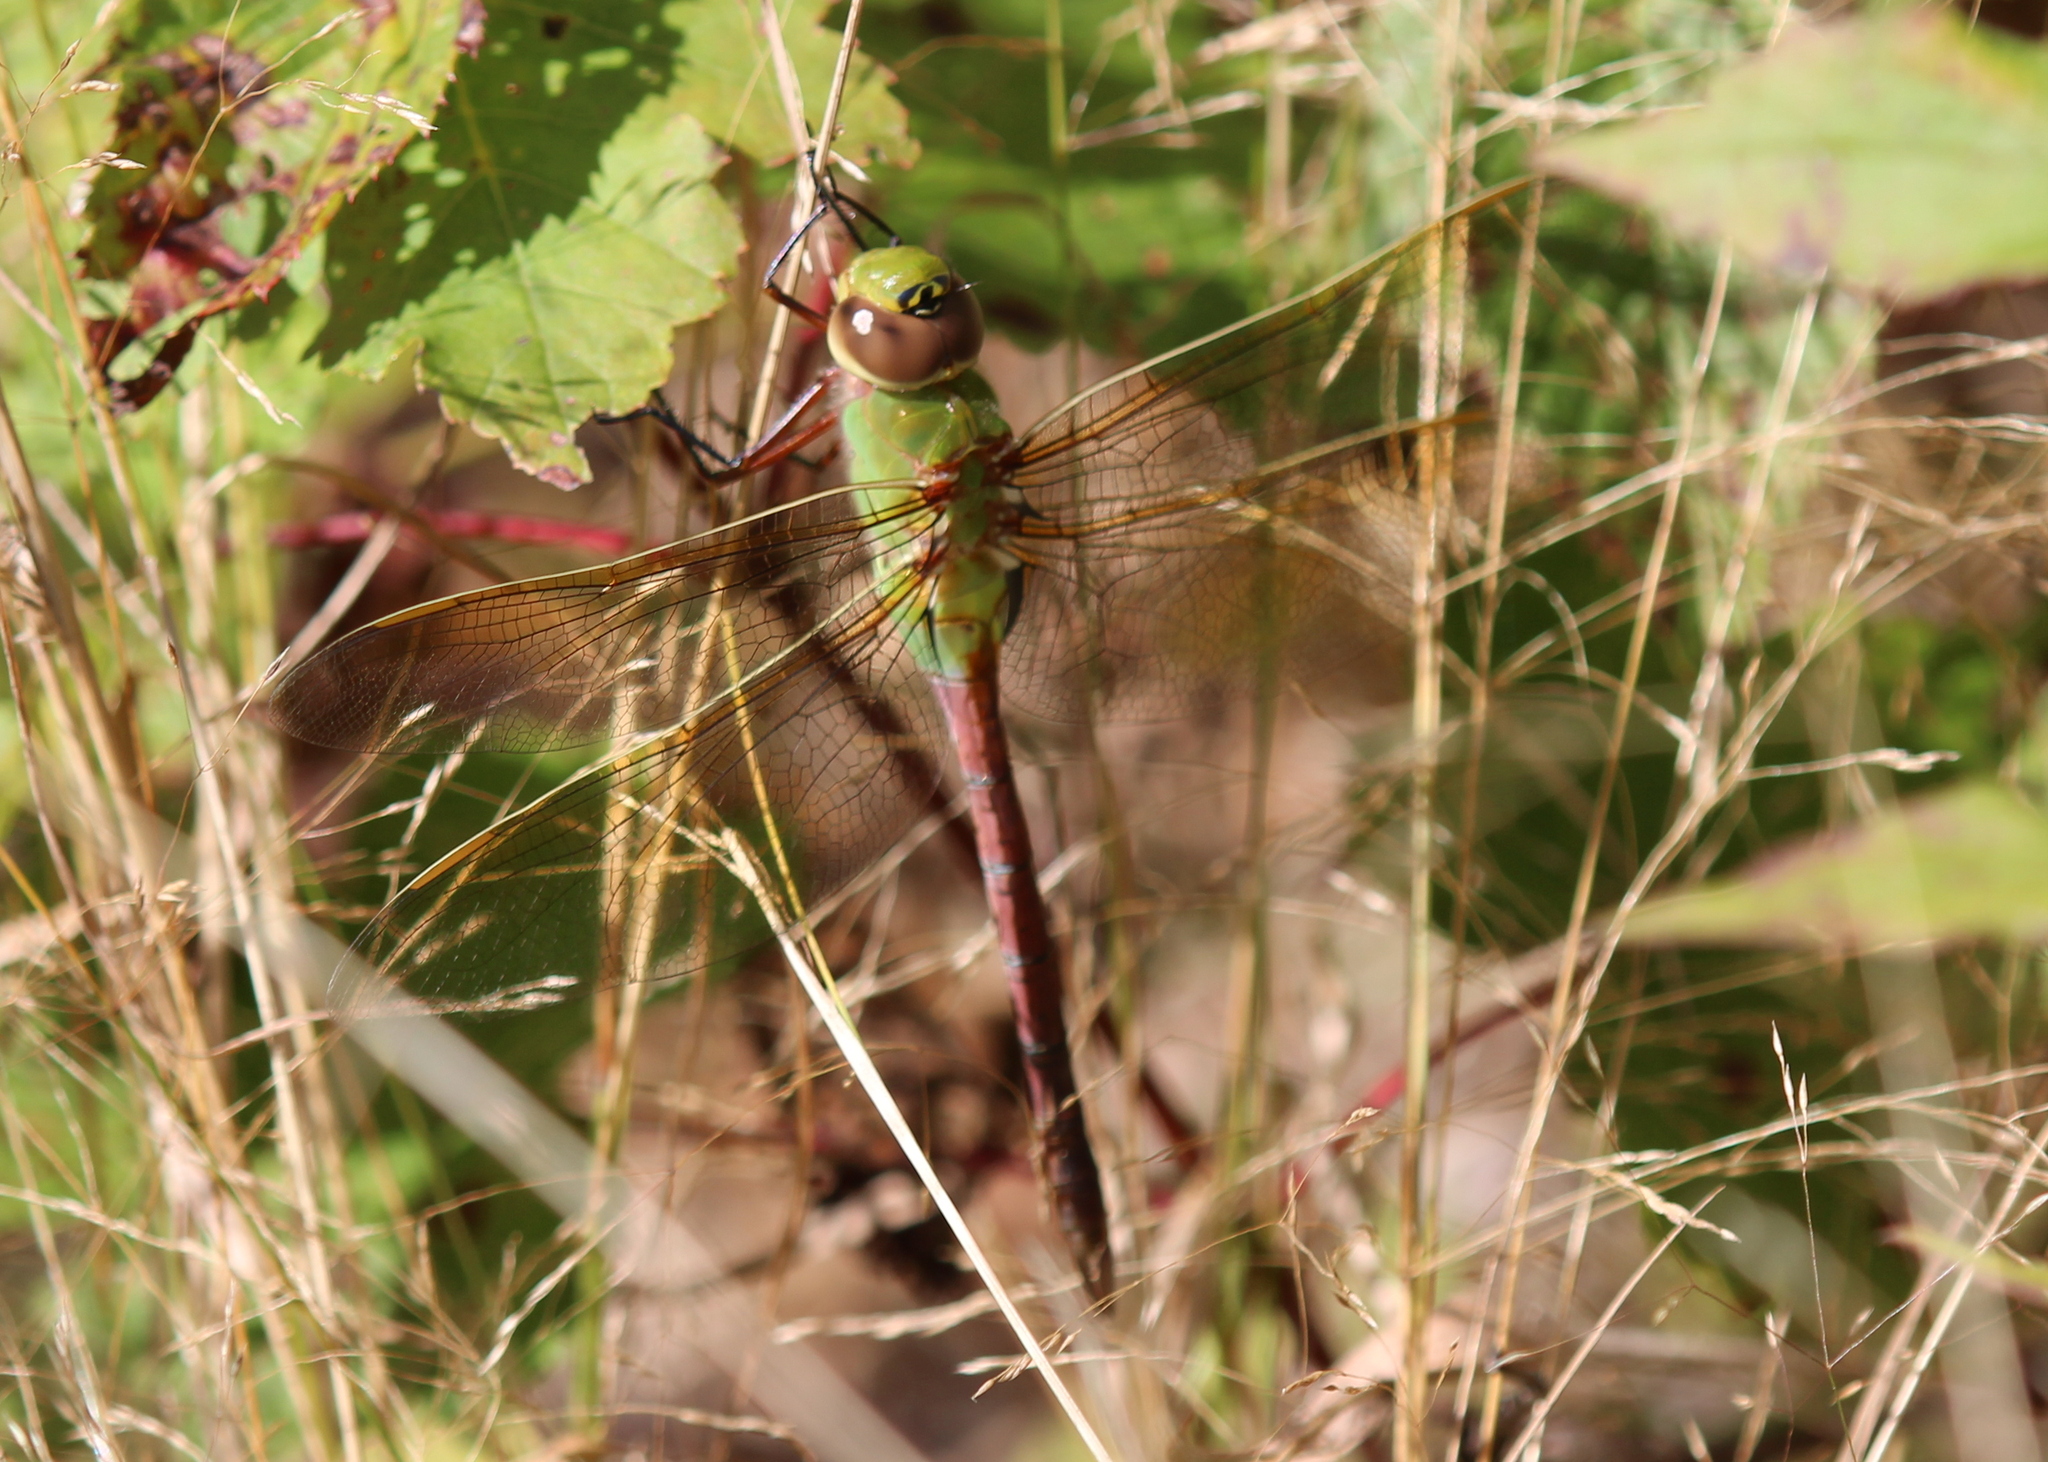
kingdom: Animalia
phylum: Arthropoda
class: Insecta
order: Odonata
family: Aeshnidae
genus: Anax
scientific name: Anax junius
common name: Common green darner
